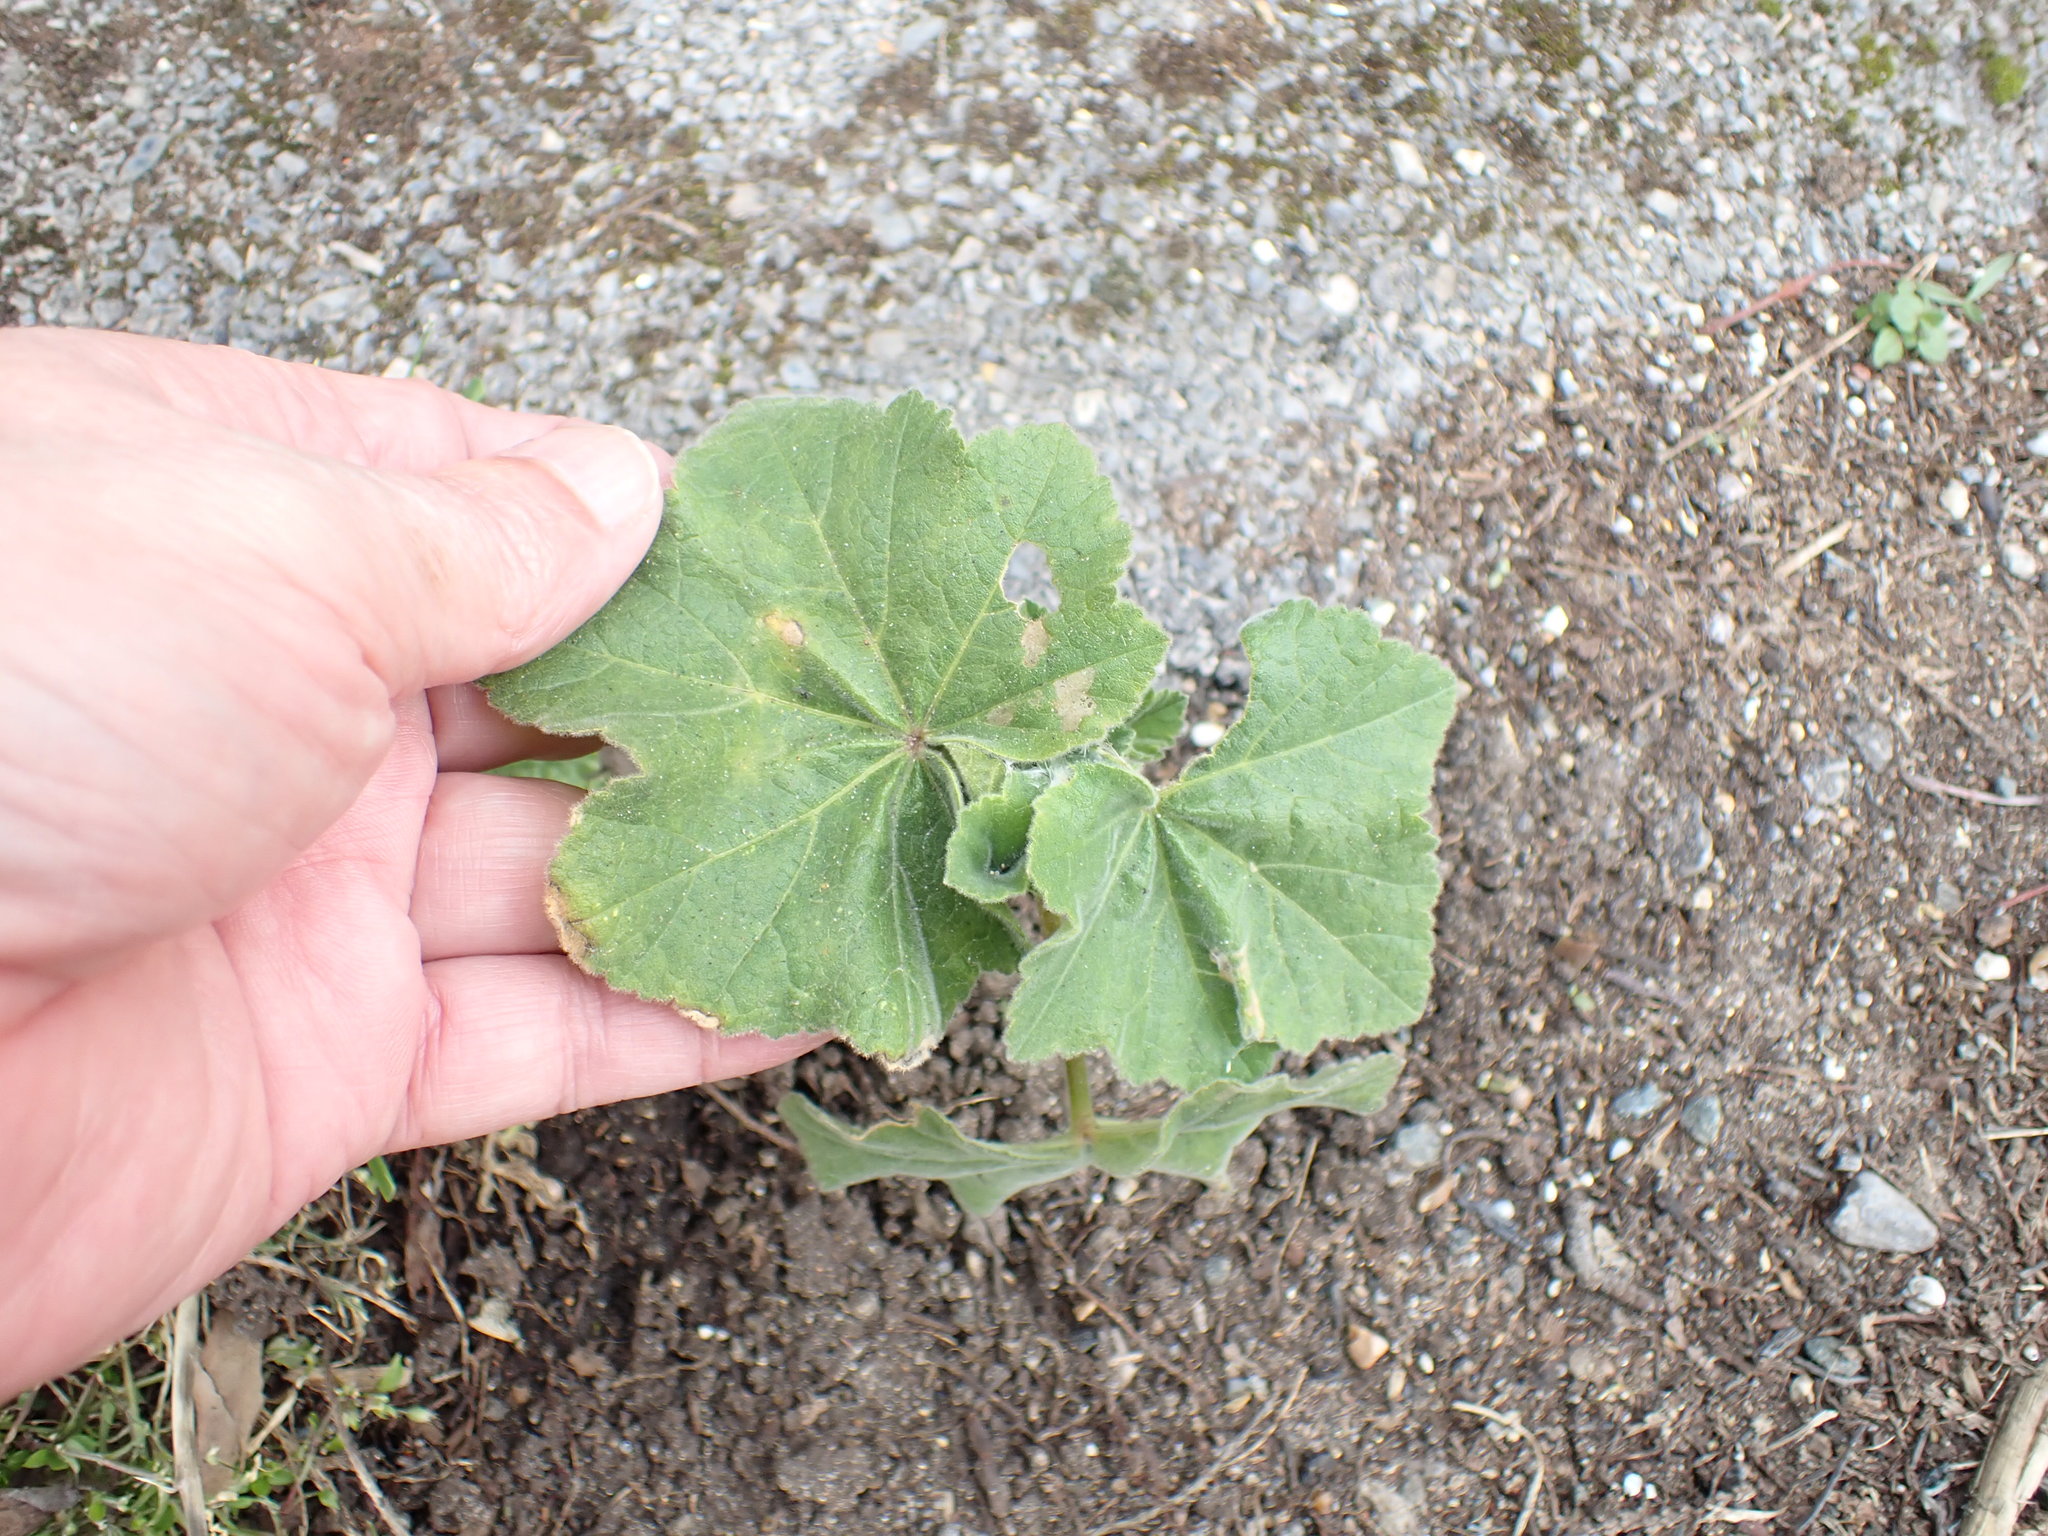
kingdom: Plantae
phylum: Tracheophyta
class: Magnoliopsida
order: Malvales
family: Malvaceae
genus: Malva
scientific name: Malva arborea
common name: Tree mallow
